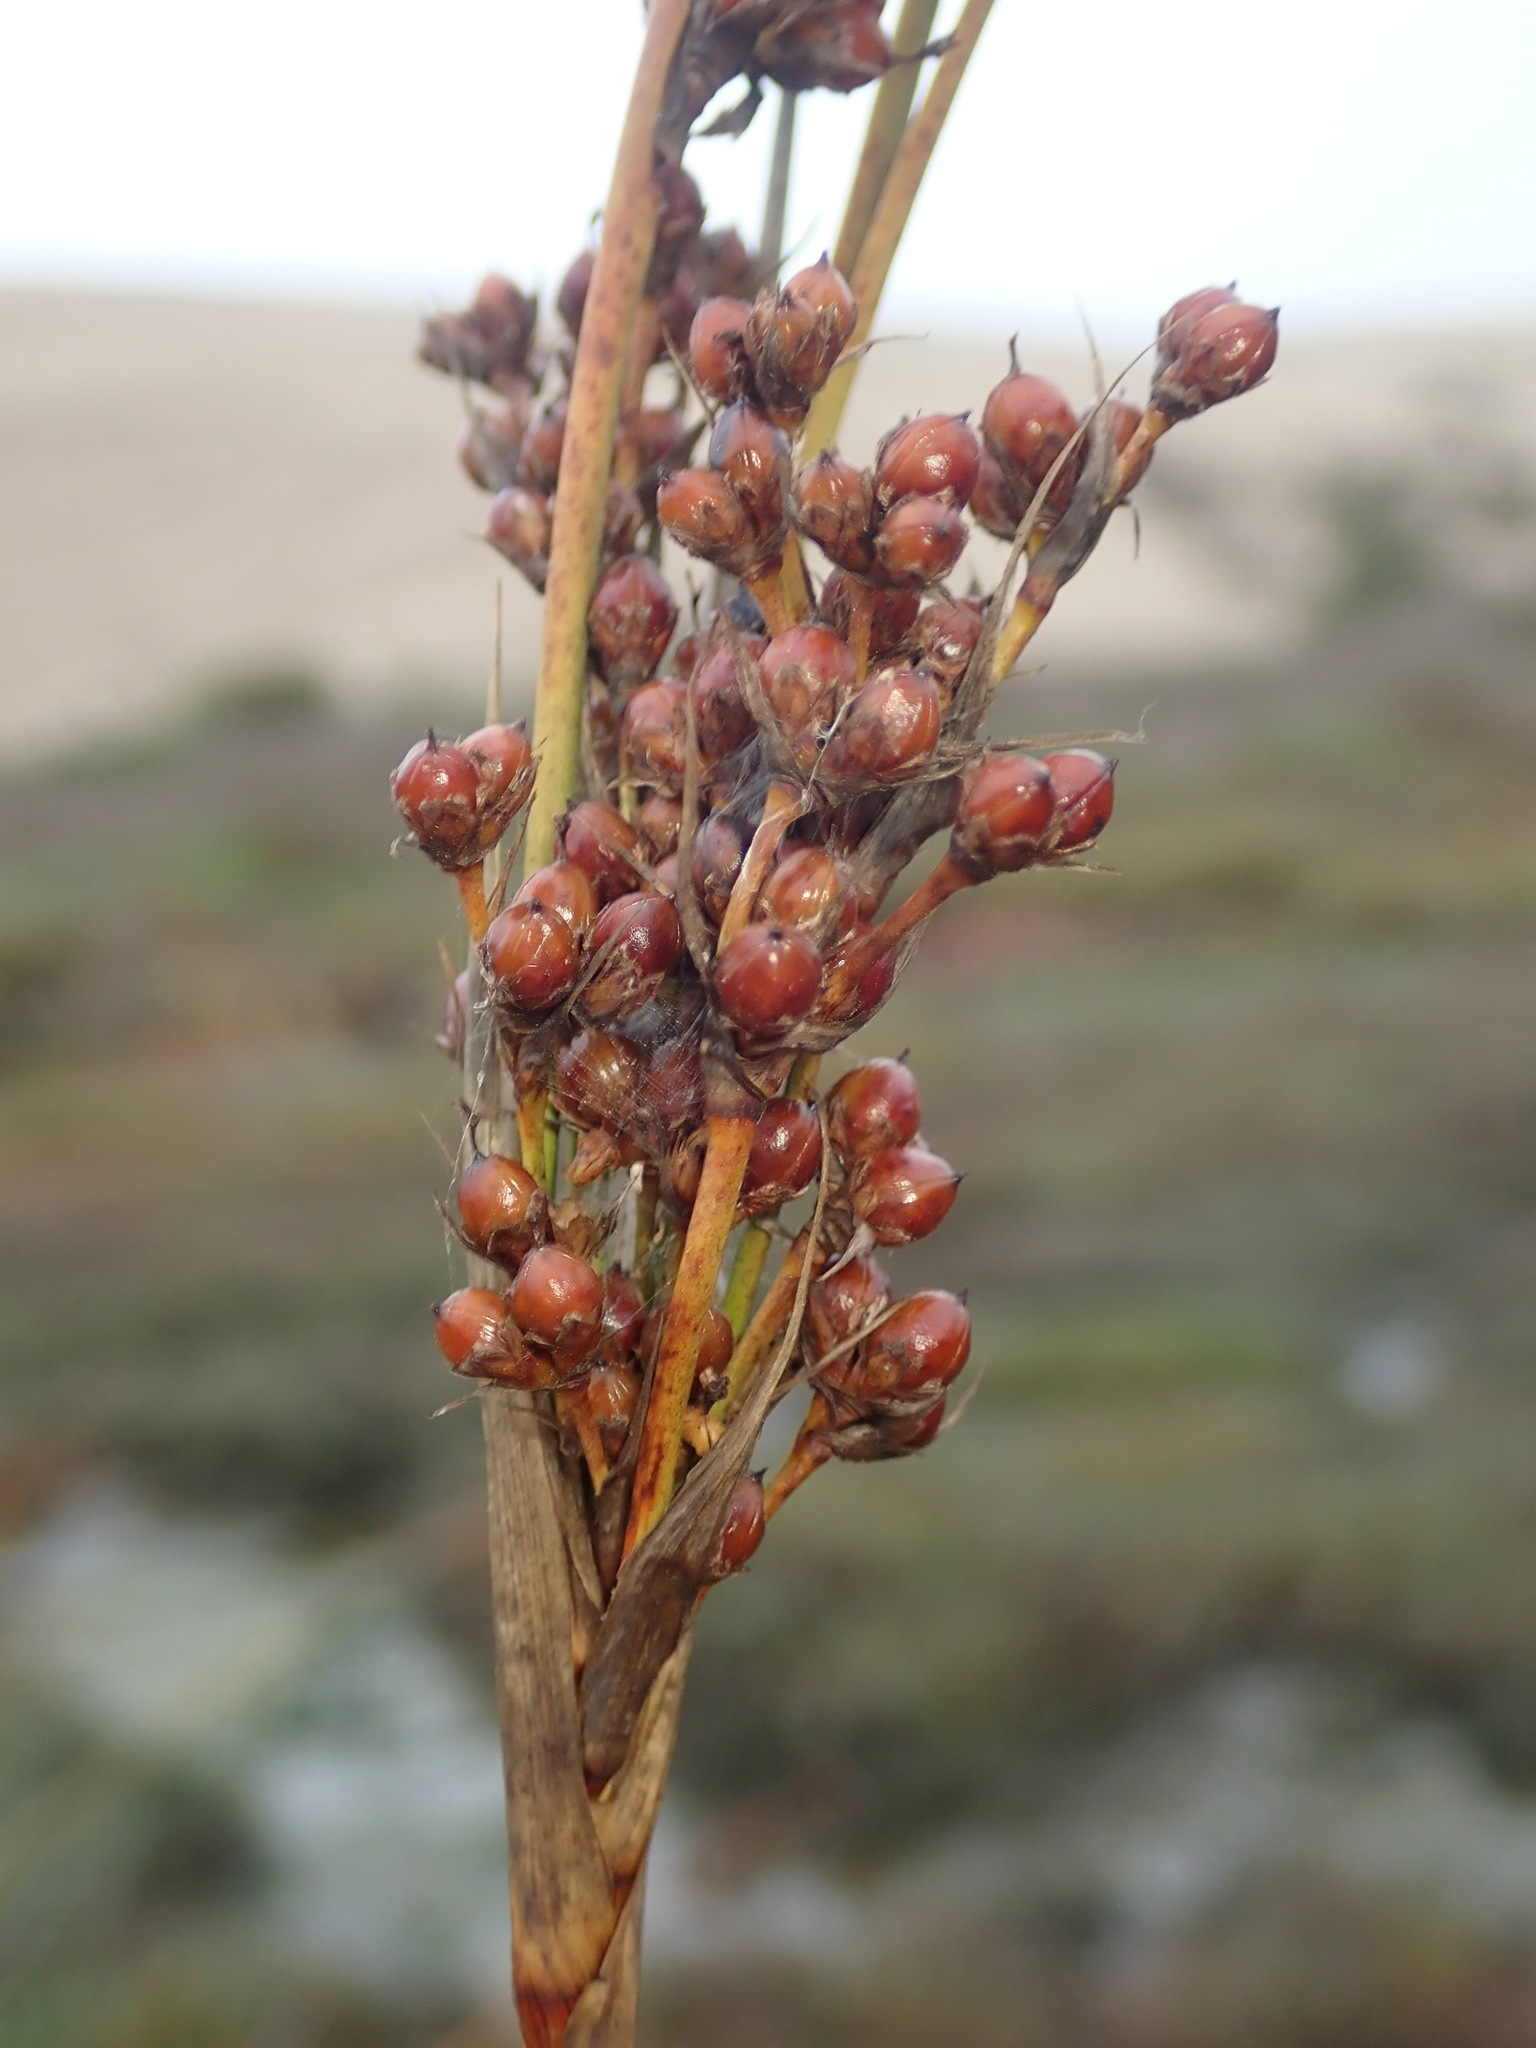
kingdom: Plantae
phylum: Tracheophyta
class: Liliopsida
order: Poales
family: Juncaceae
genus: Juncus
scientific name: Juncus acutus
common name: Sharp rush
